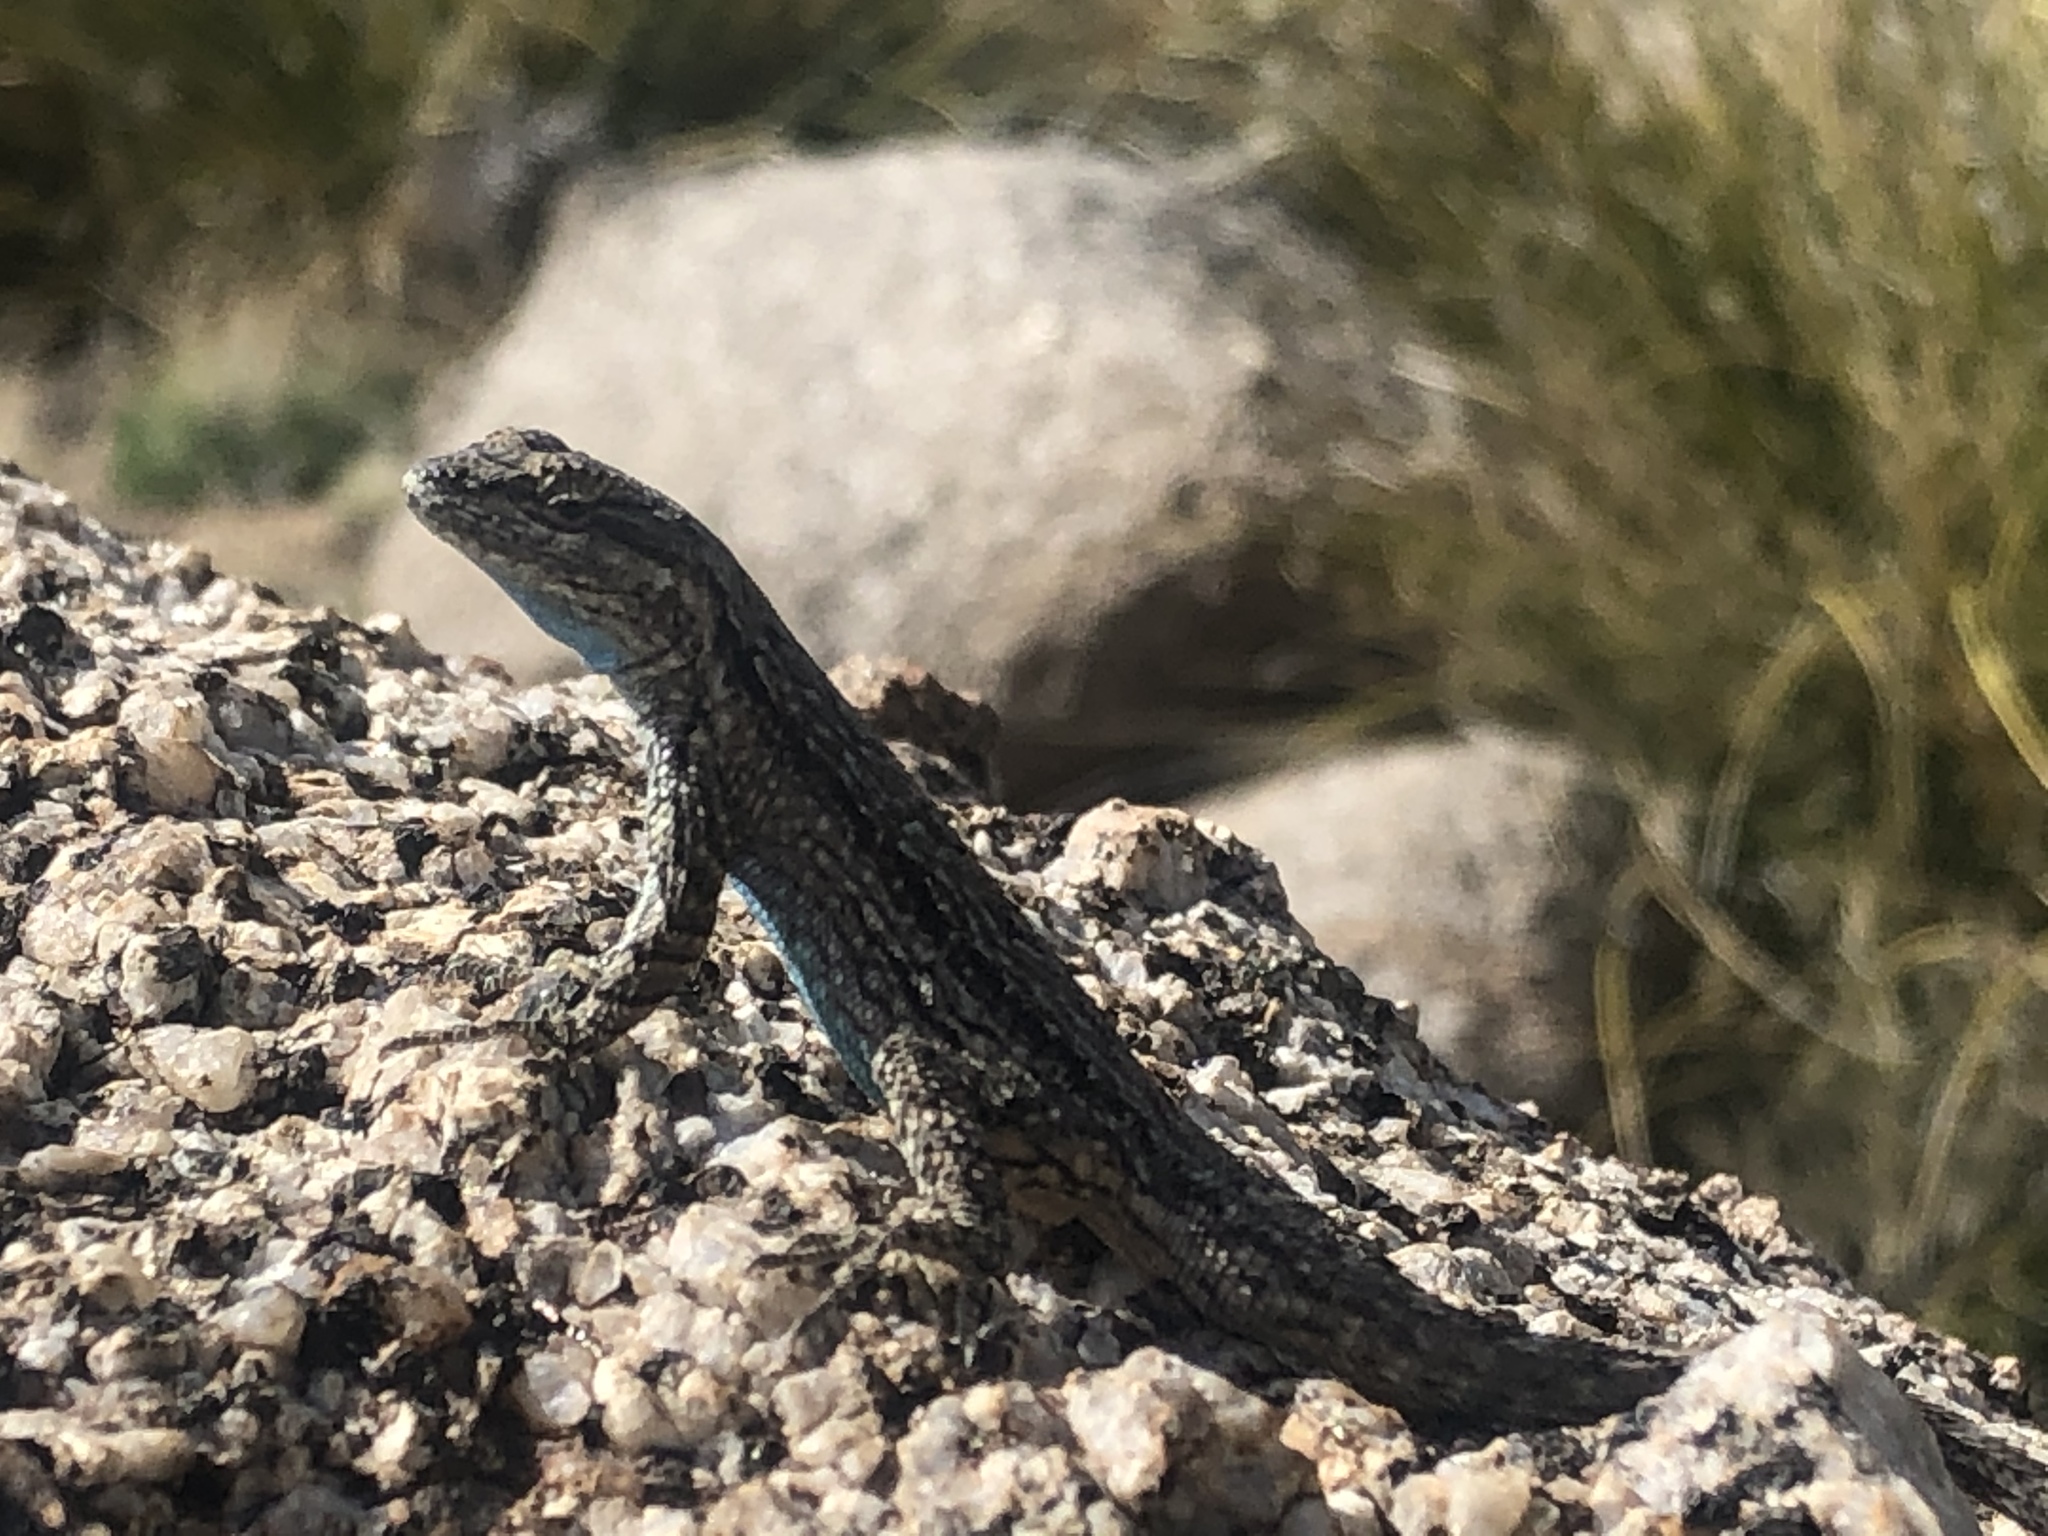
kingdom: Animalia
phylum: Chordata
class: Squamata
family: Phrynosomatidae
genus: Urosaurus
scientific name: Urosaurus ornatus
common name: Ornate tree lizard
